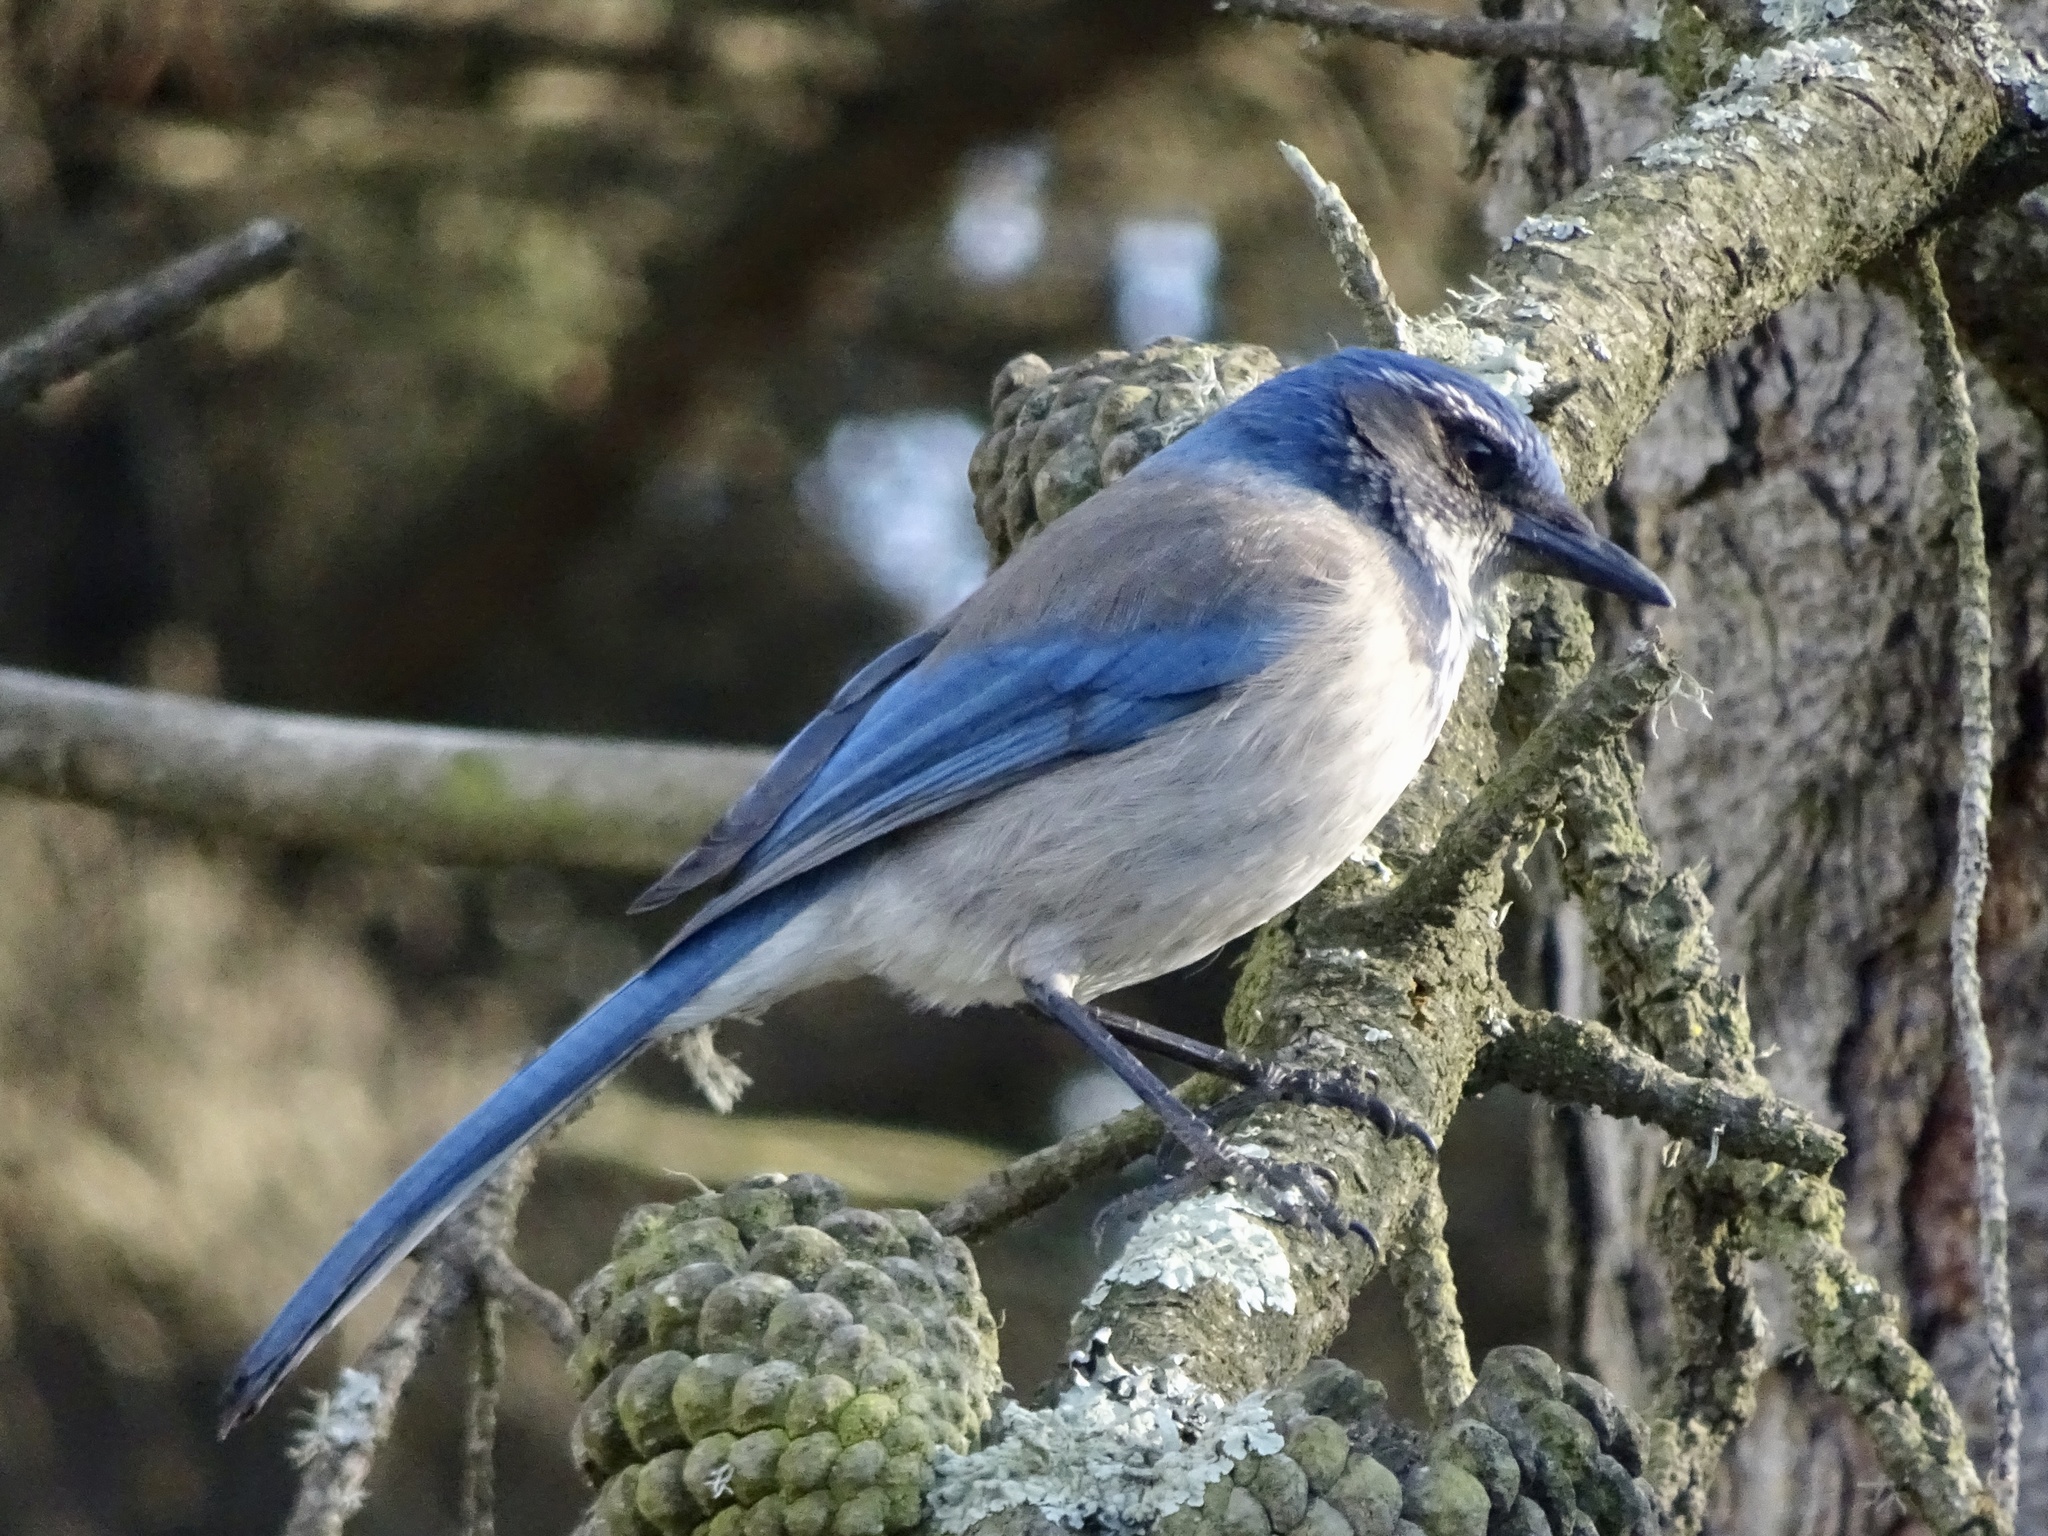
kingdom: Animalia
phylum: Chordata
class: Aves
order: Passeriformes
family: Corvidae
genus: Aphelocoma
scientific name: Aphelocoma californica
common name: California scrub-jay
